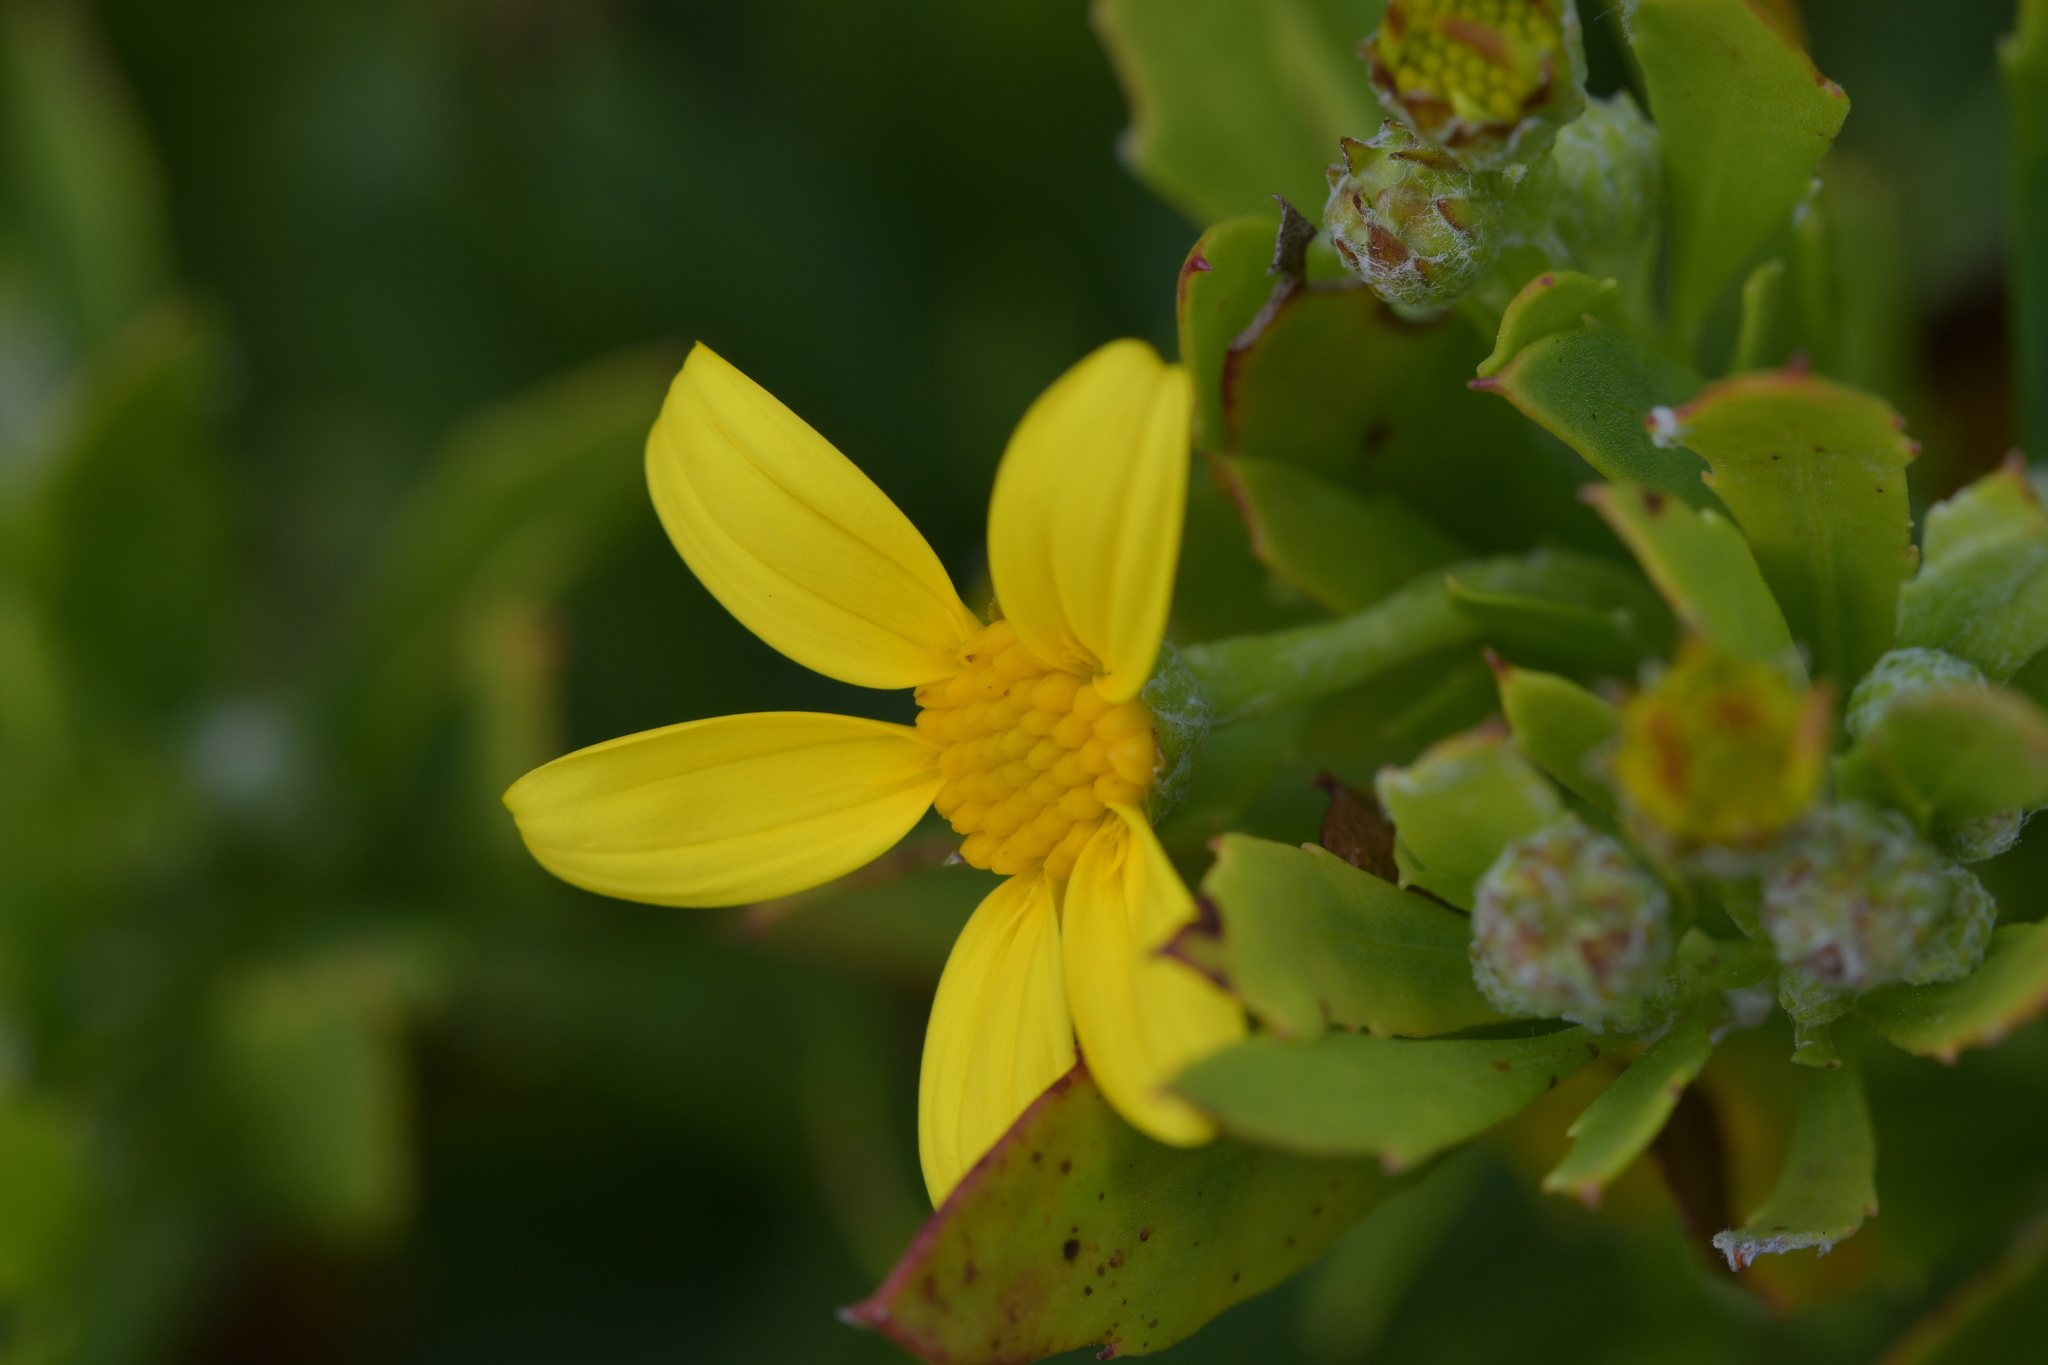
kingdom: Plantae
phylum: Tracheophyta
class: Magnoliopsida
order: Asterales
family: Asteraceae
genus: Osteospermum
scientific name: Osteospermum moniliferum
